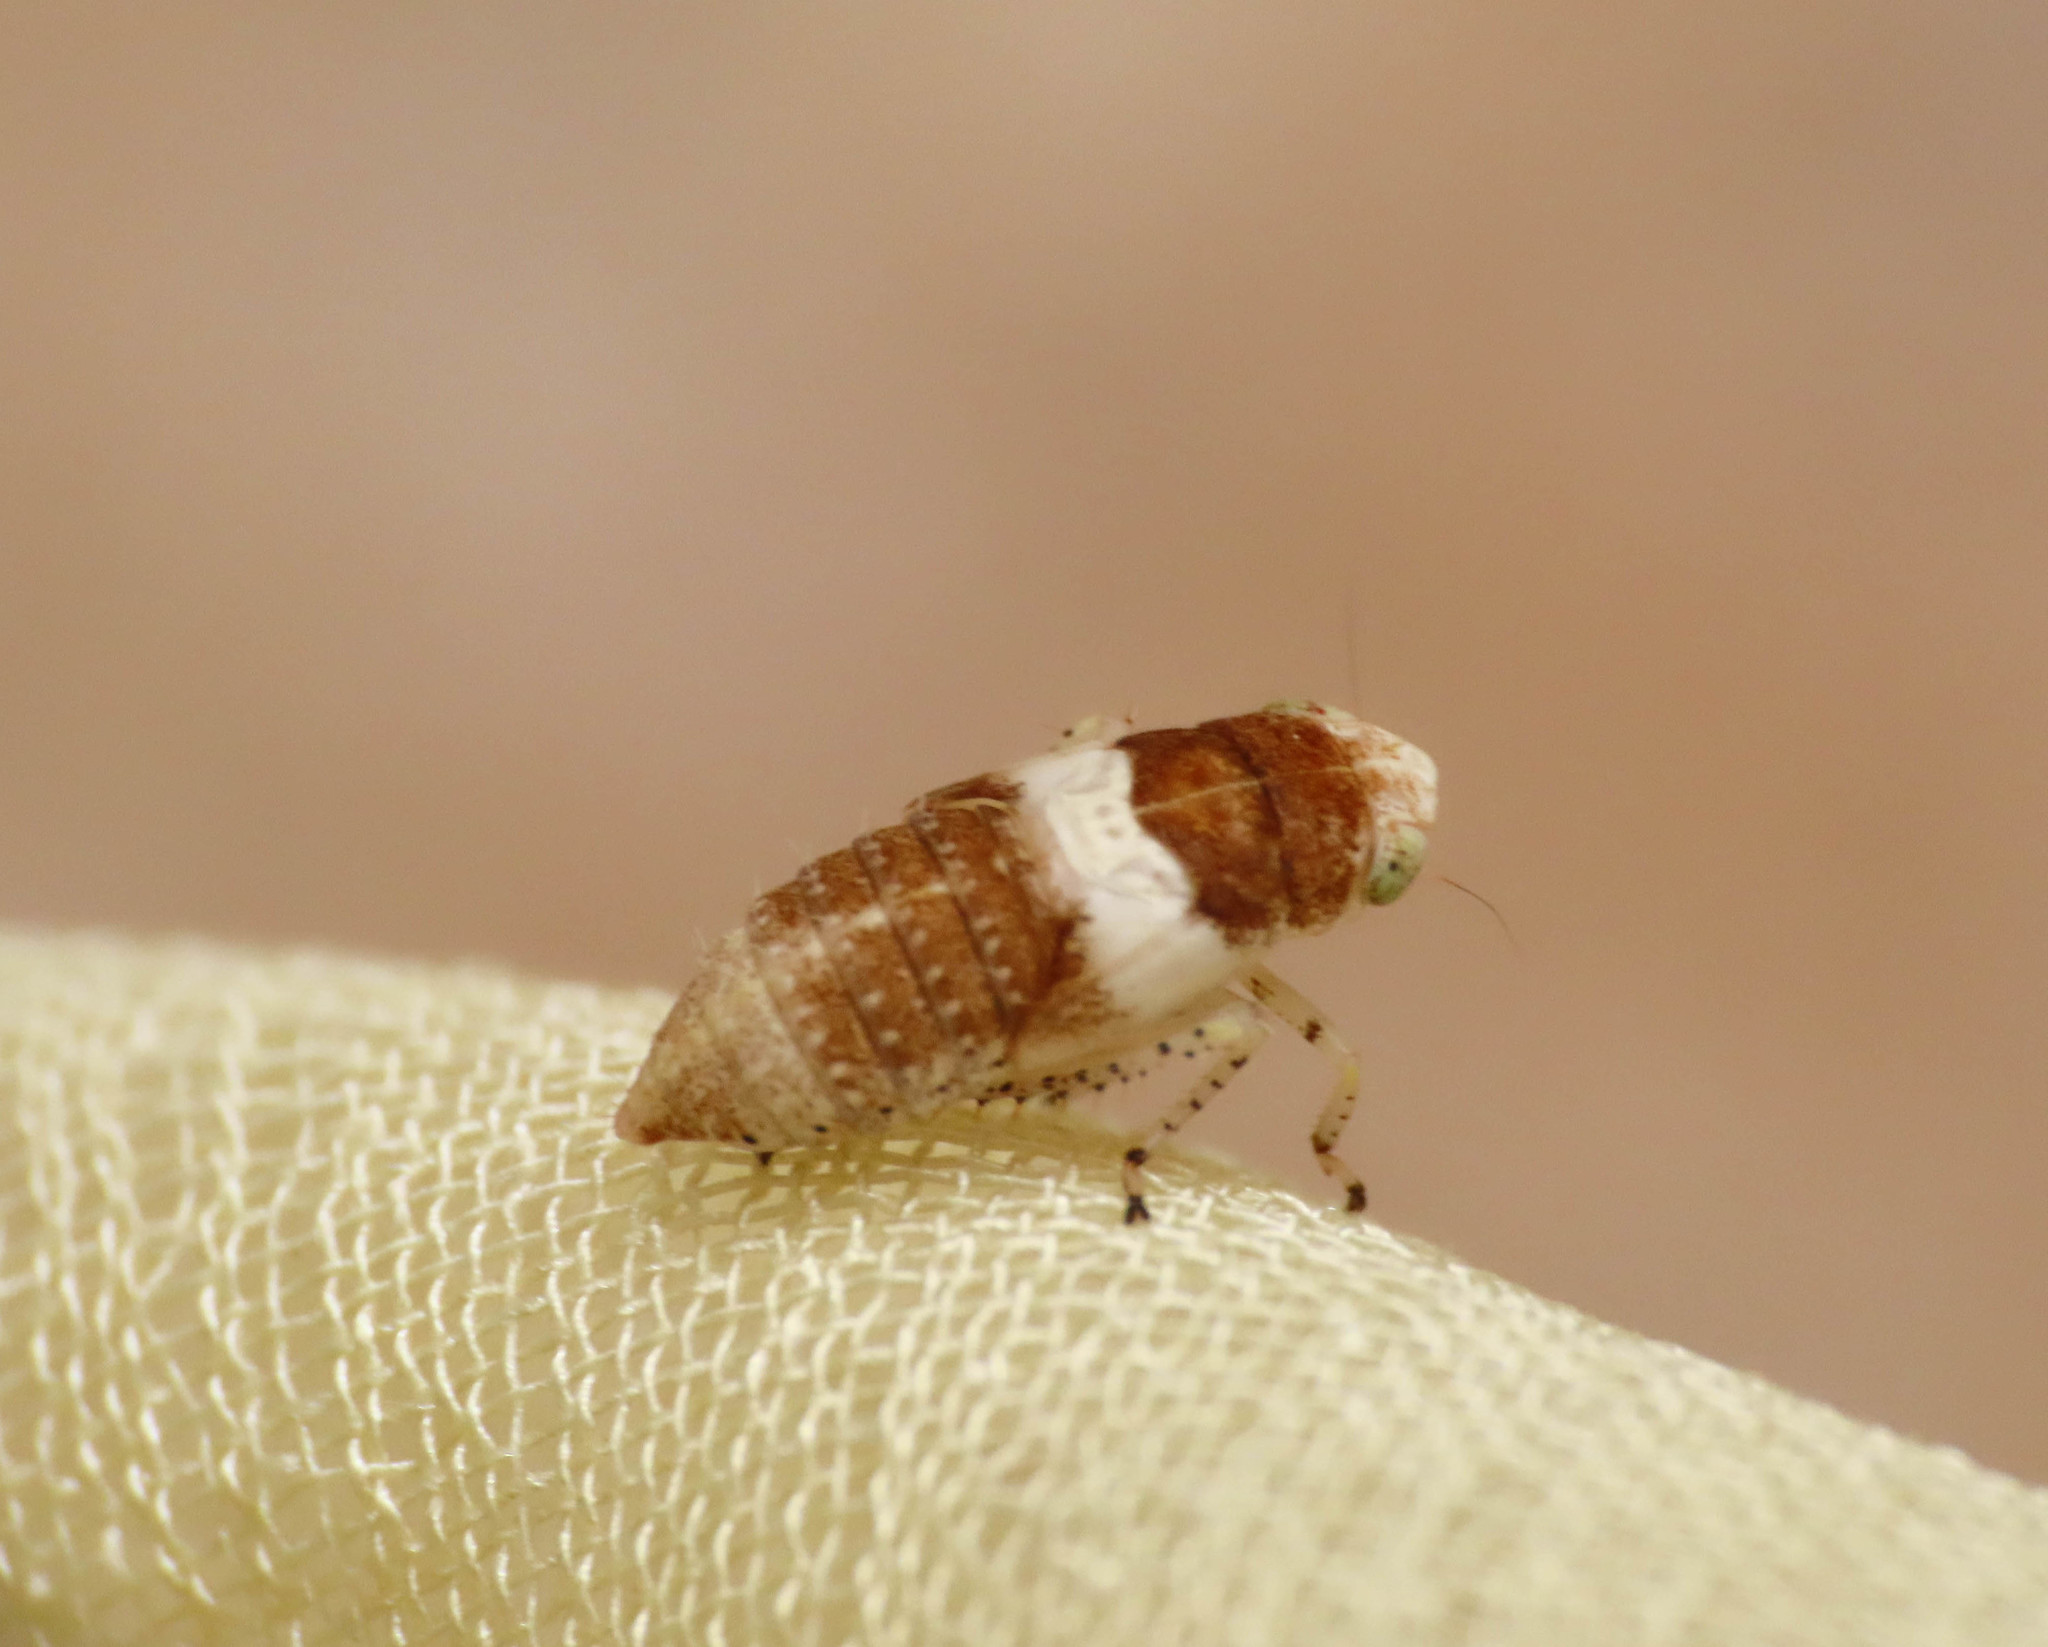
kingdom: Animalia
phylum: Arthropoda
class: Insecta
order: Hemiptera
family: Cicadellidae
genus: Allygidius
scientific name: Allygidius atomarius
